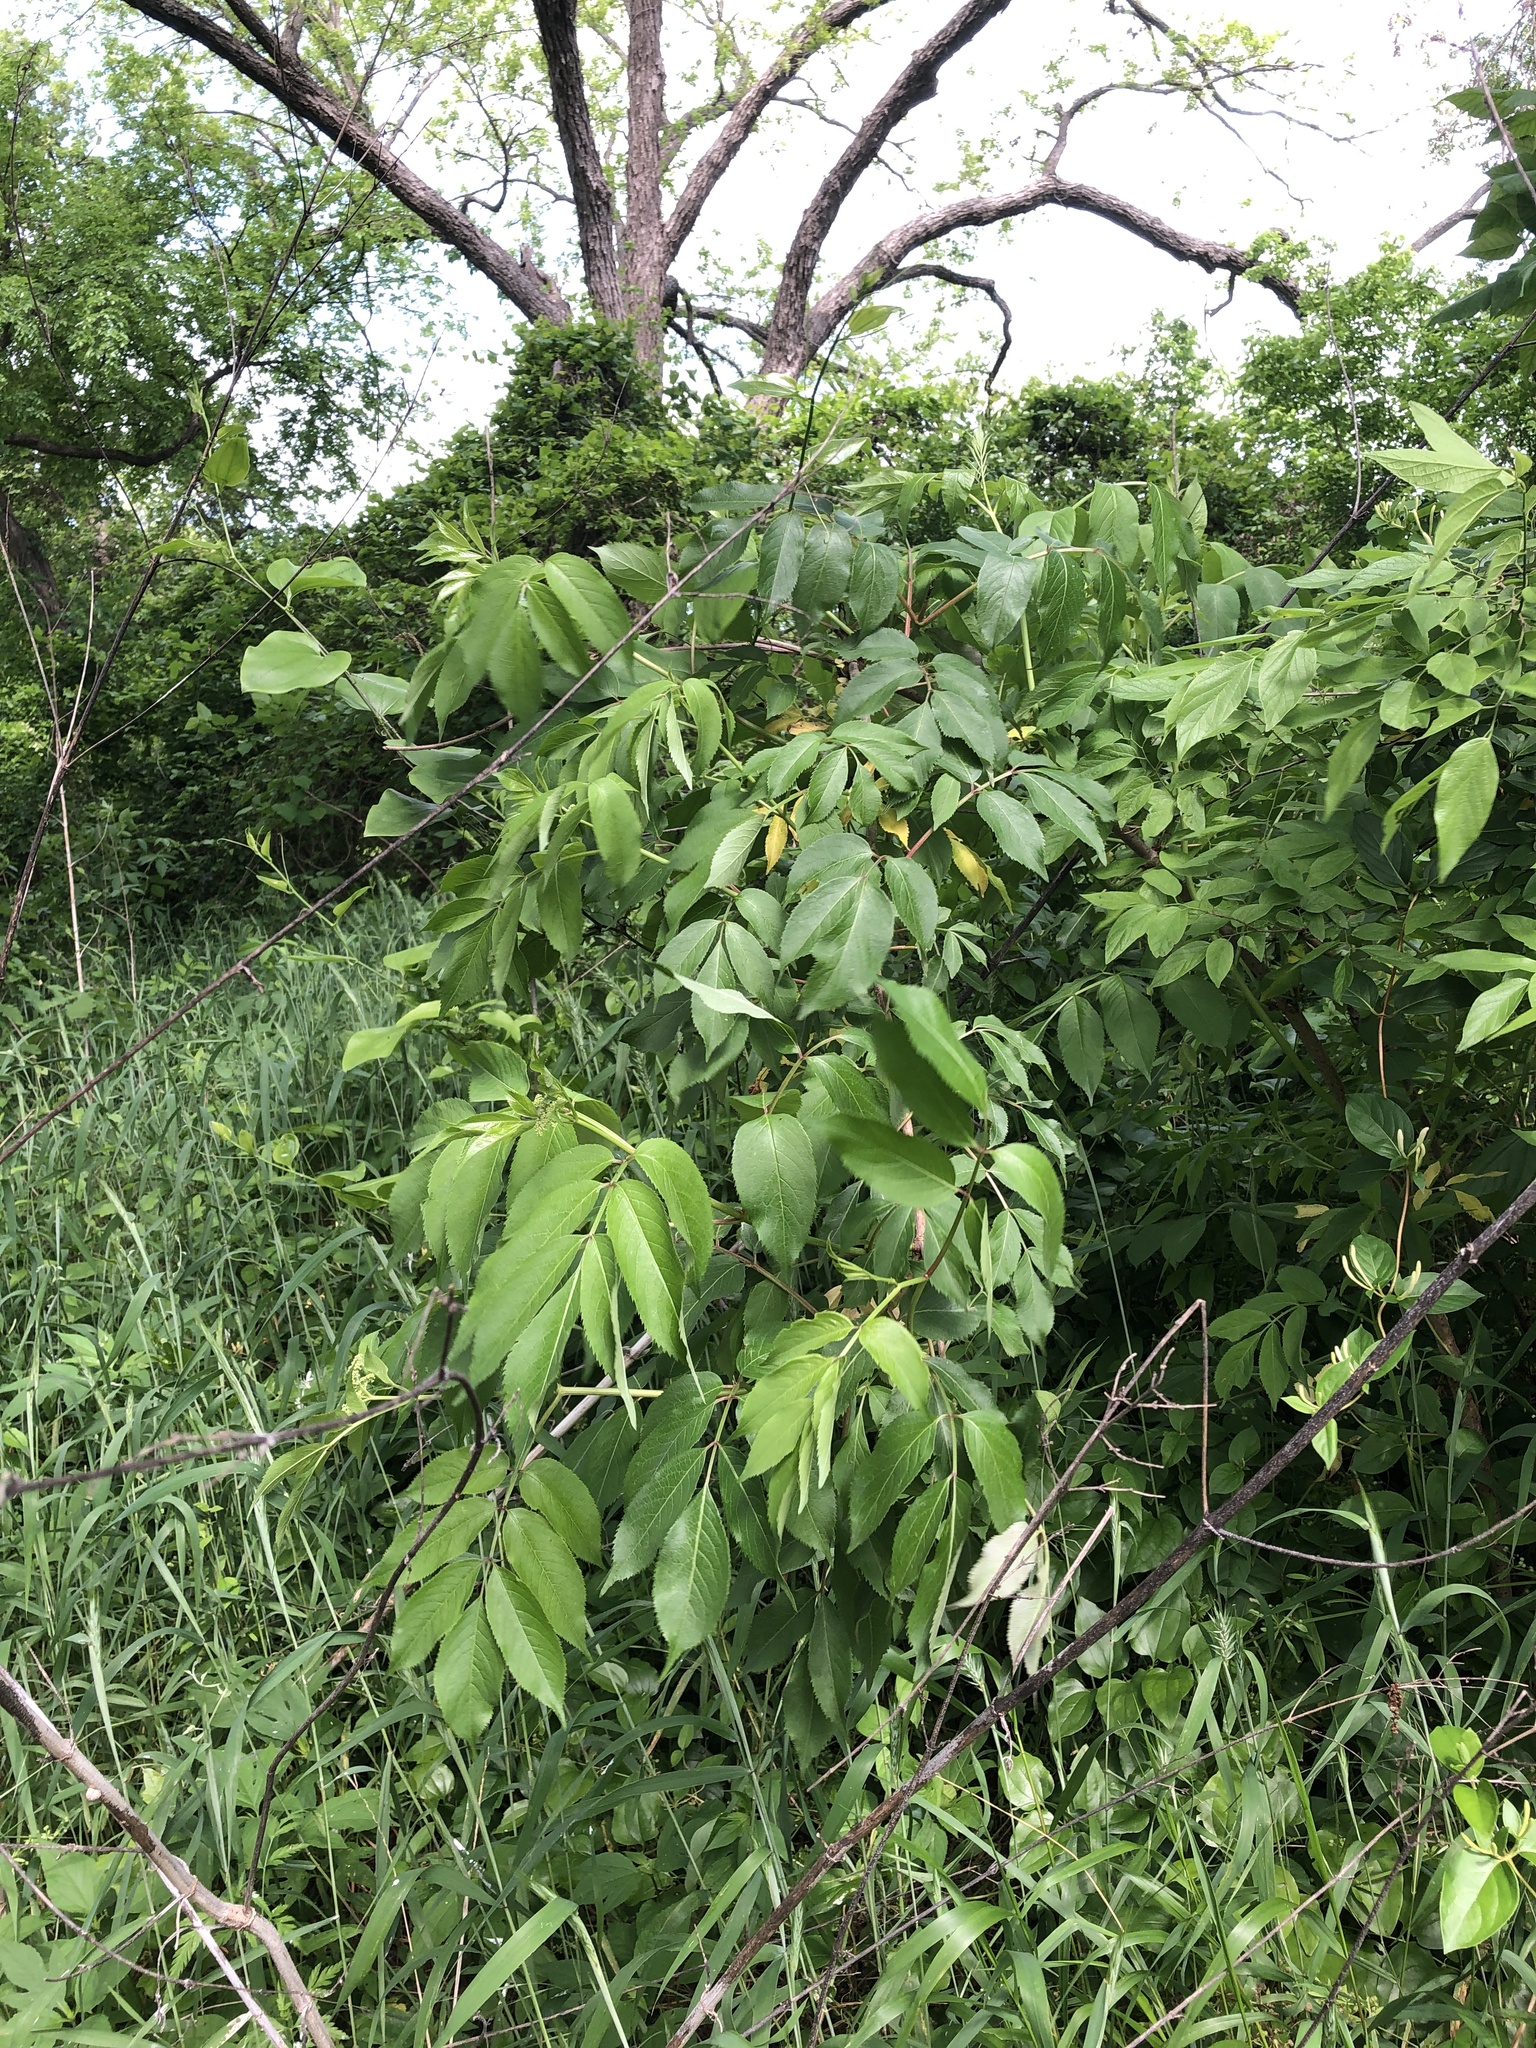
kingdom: Plantae
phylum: Tracheophyta
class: Magnoliopsida
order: Dipsacales
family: Viburnaceae
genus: Sambucus
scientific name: Sambucus canadensis
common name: American elder
